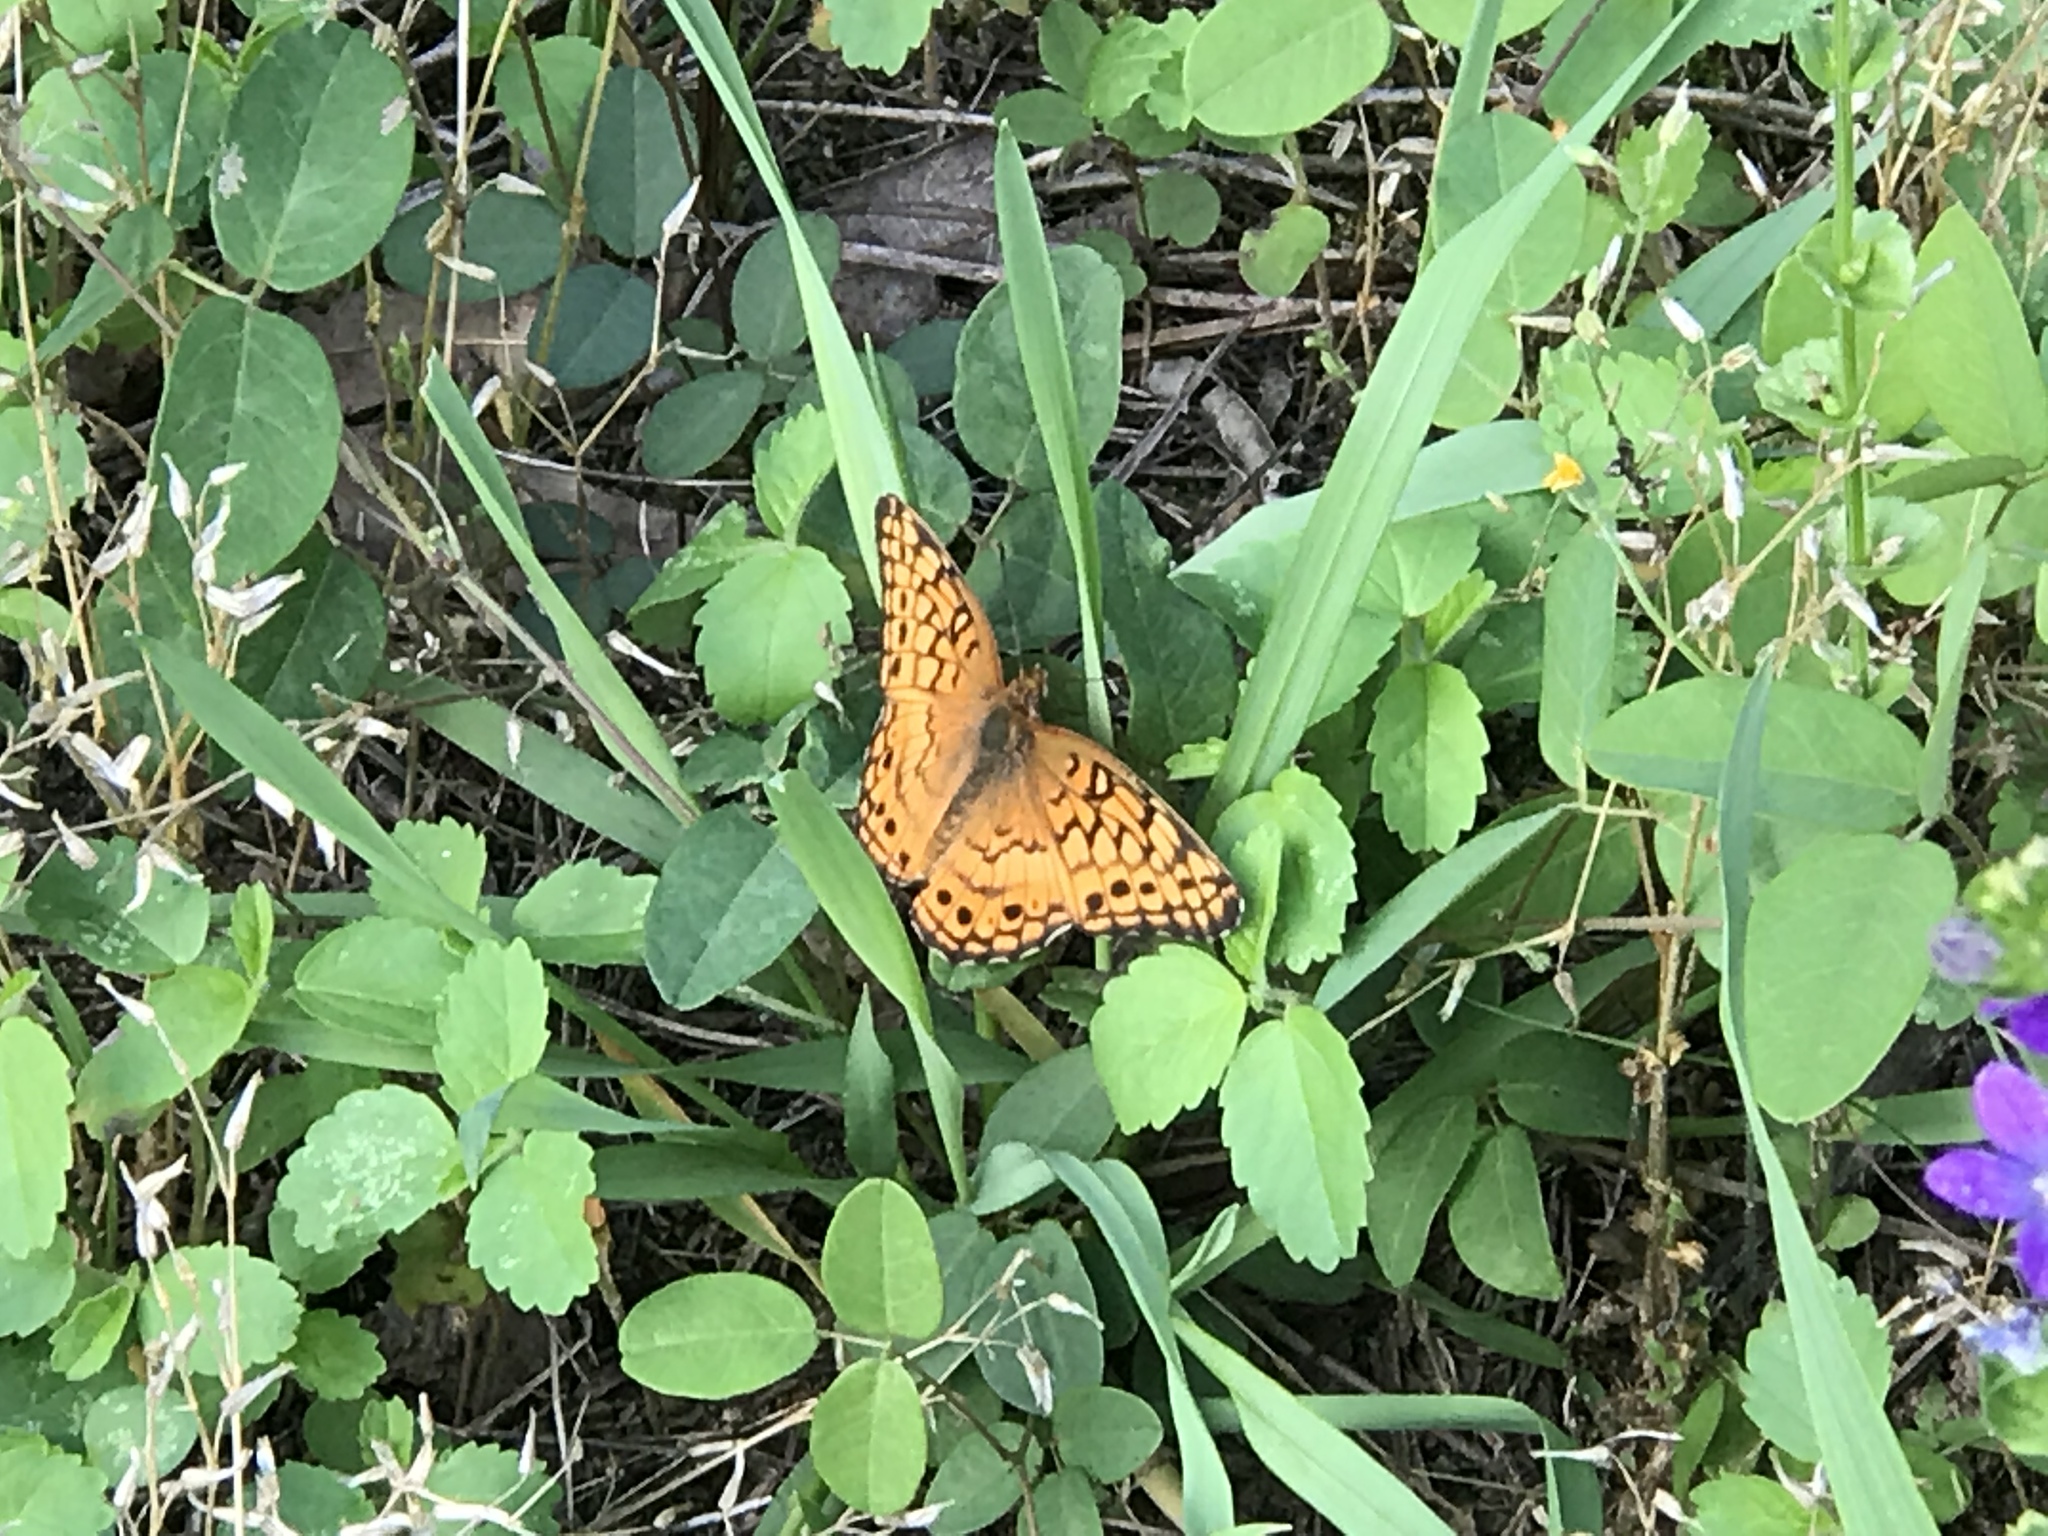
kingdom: Animalia
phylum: Arthropoda
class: Insecta
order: Lepidoptera
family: Nymphalidae
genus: Euptoieta
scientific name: Euptoieta claudia
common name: Variegated fritillary
